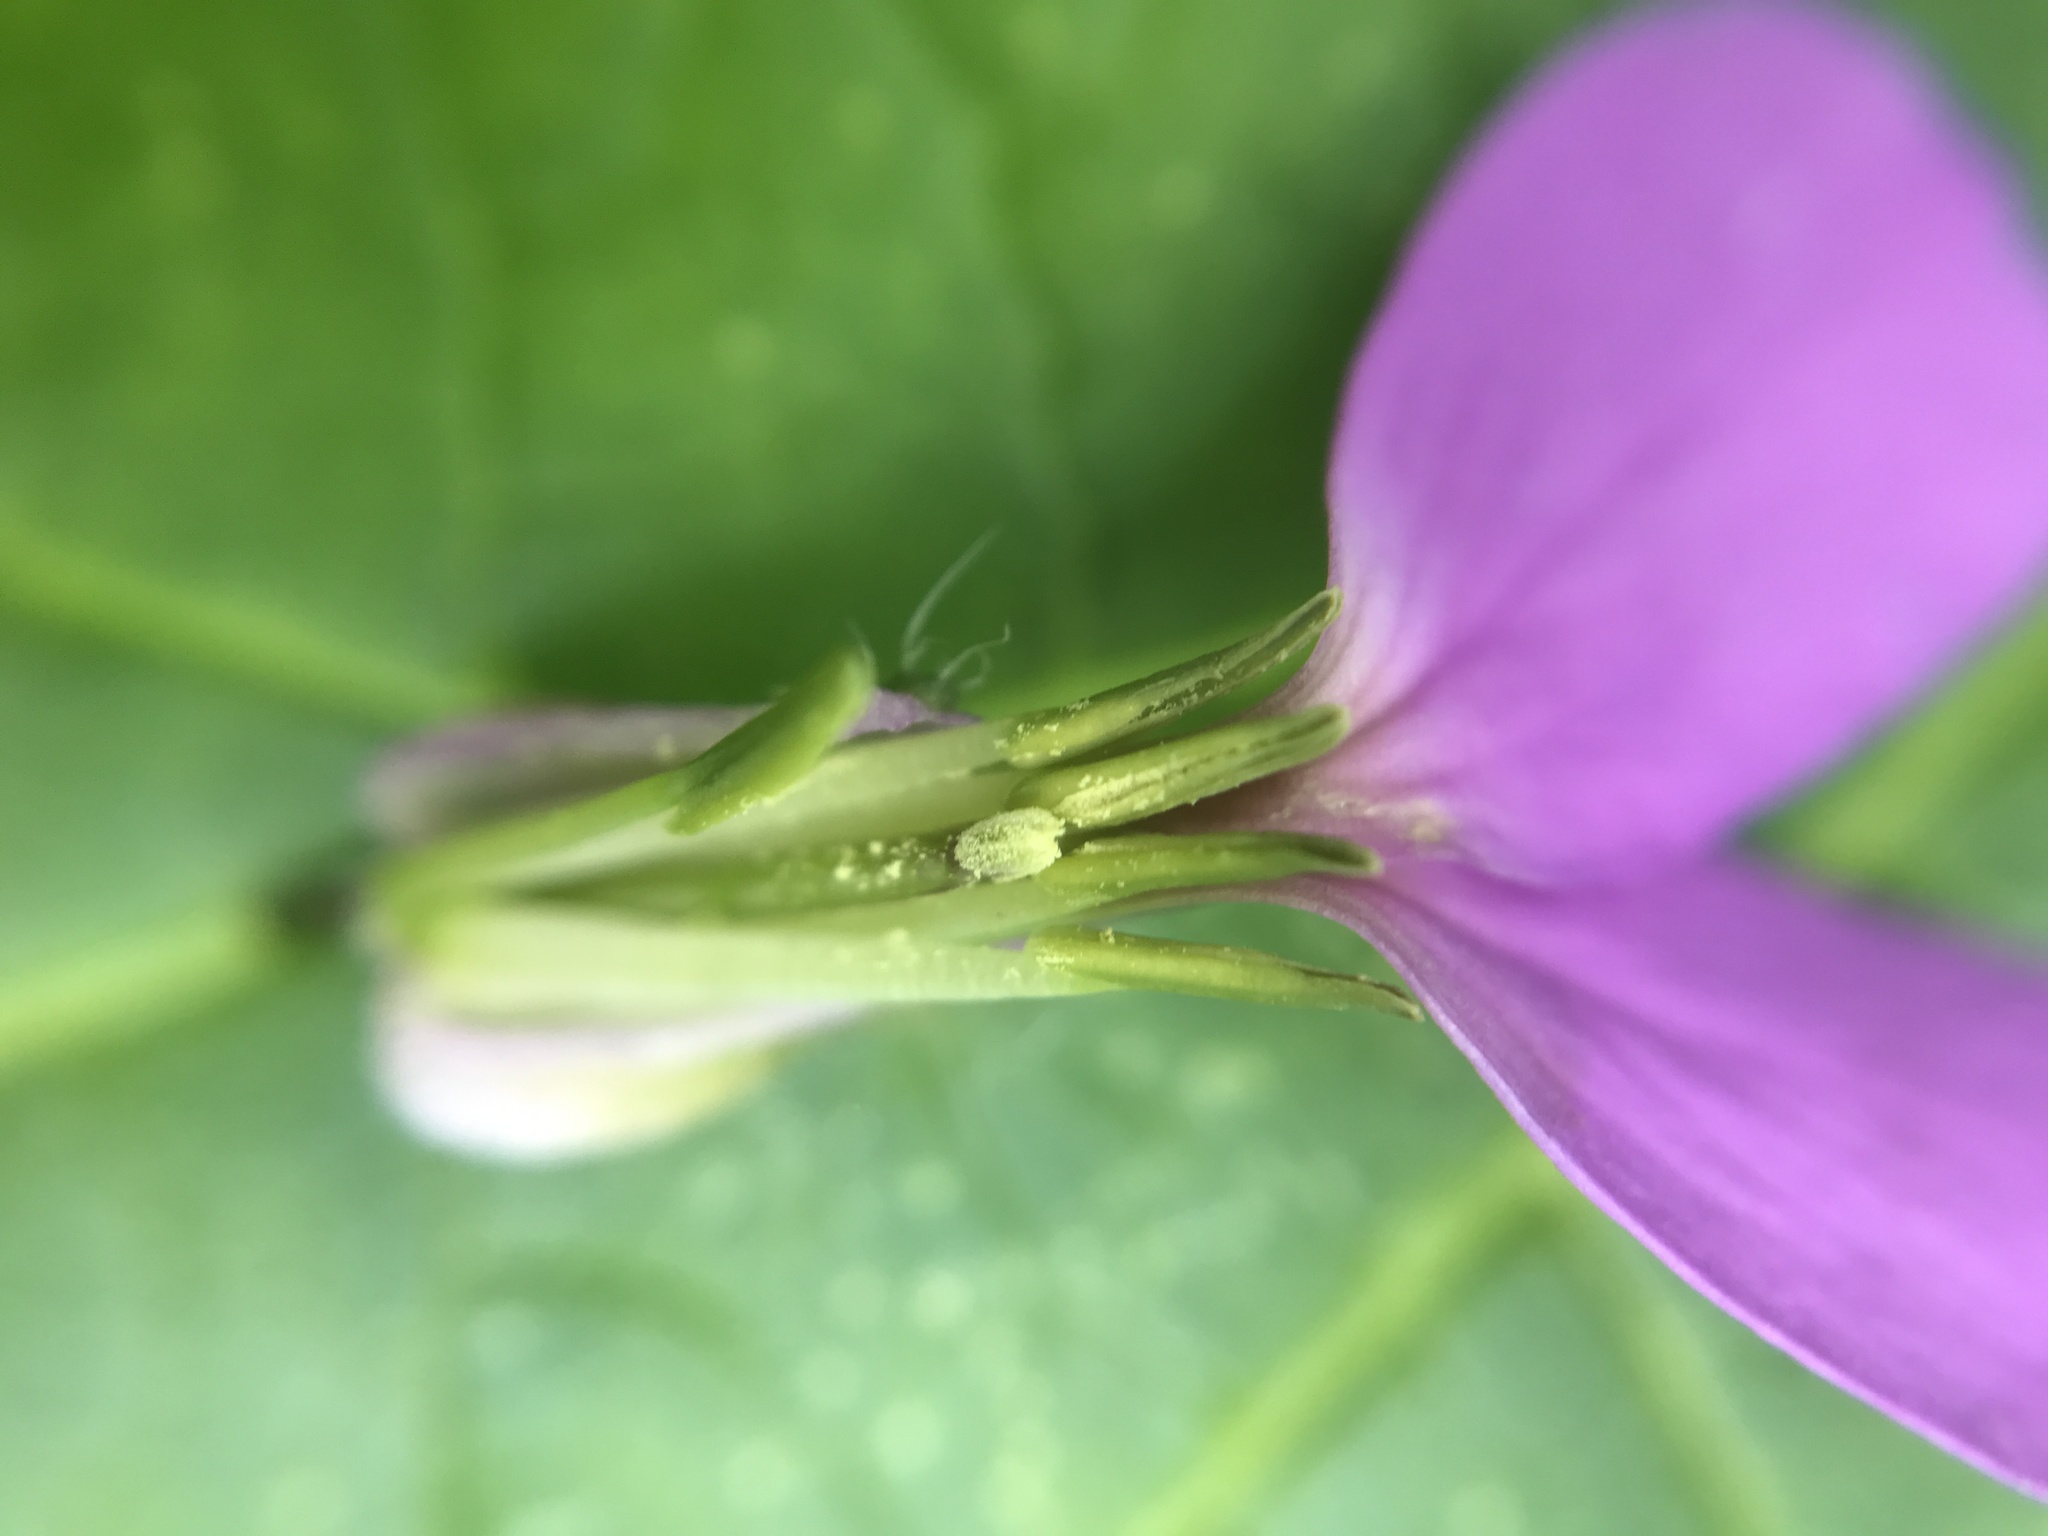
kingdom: Plantae
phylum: Tracheophyta
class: Magnoliopsida
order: Brassicales
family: Brassicaceae
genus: Hesperis
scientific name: Hesperis matronalis
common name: Dame's-violet
